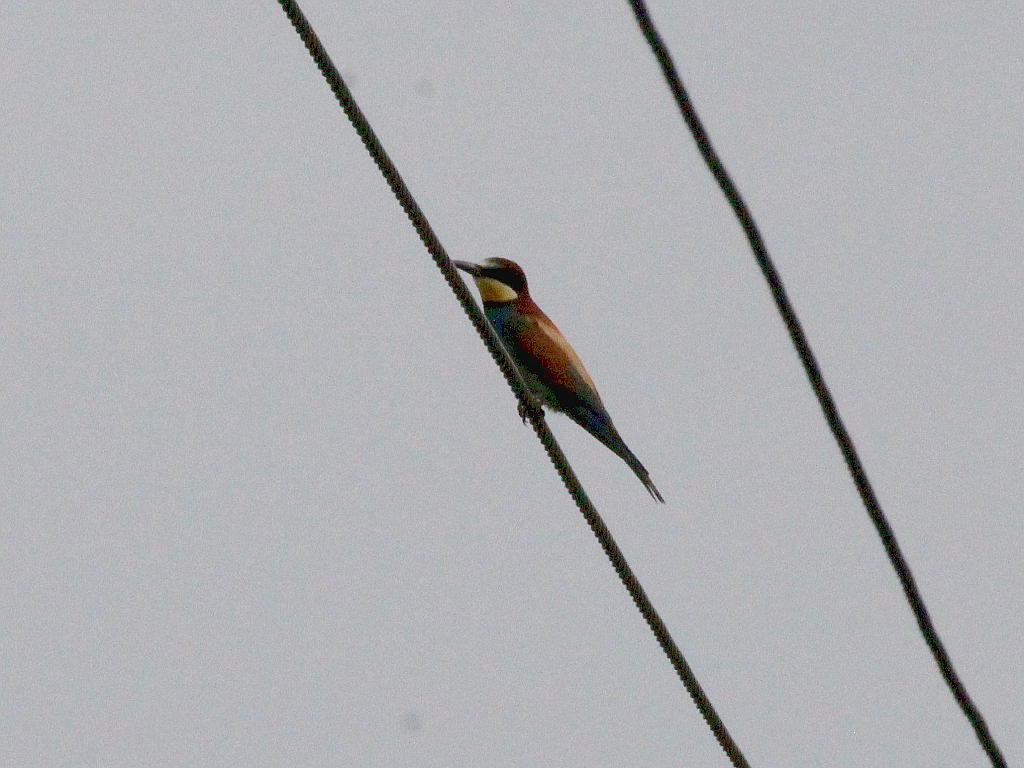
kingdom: Animalia
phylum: Chordata
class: Aves
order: Coraciiformes
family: Meropidae
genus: Merops
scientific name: Merops apiaster
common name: European bee-eater
